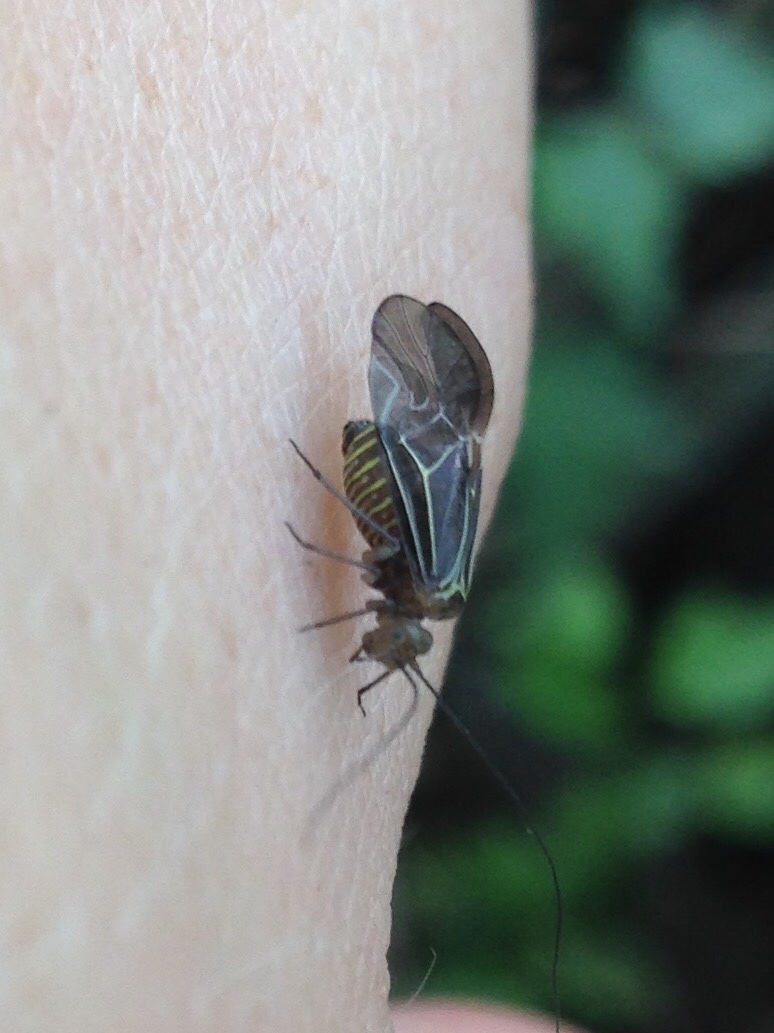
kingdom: Animalia
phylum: Arthropoda
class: Insecta
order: Psocodea
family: Psocidae
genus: Cerastipsocus
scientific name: Cerastipsocus venosus
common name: Tree cattle
